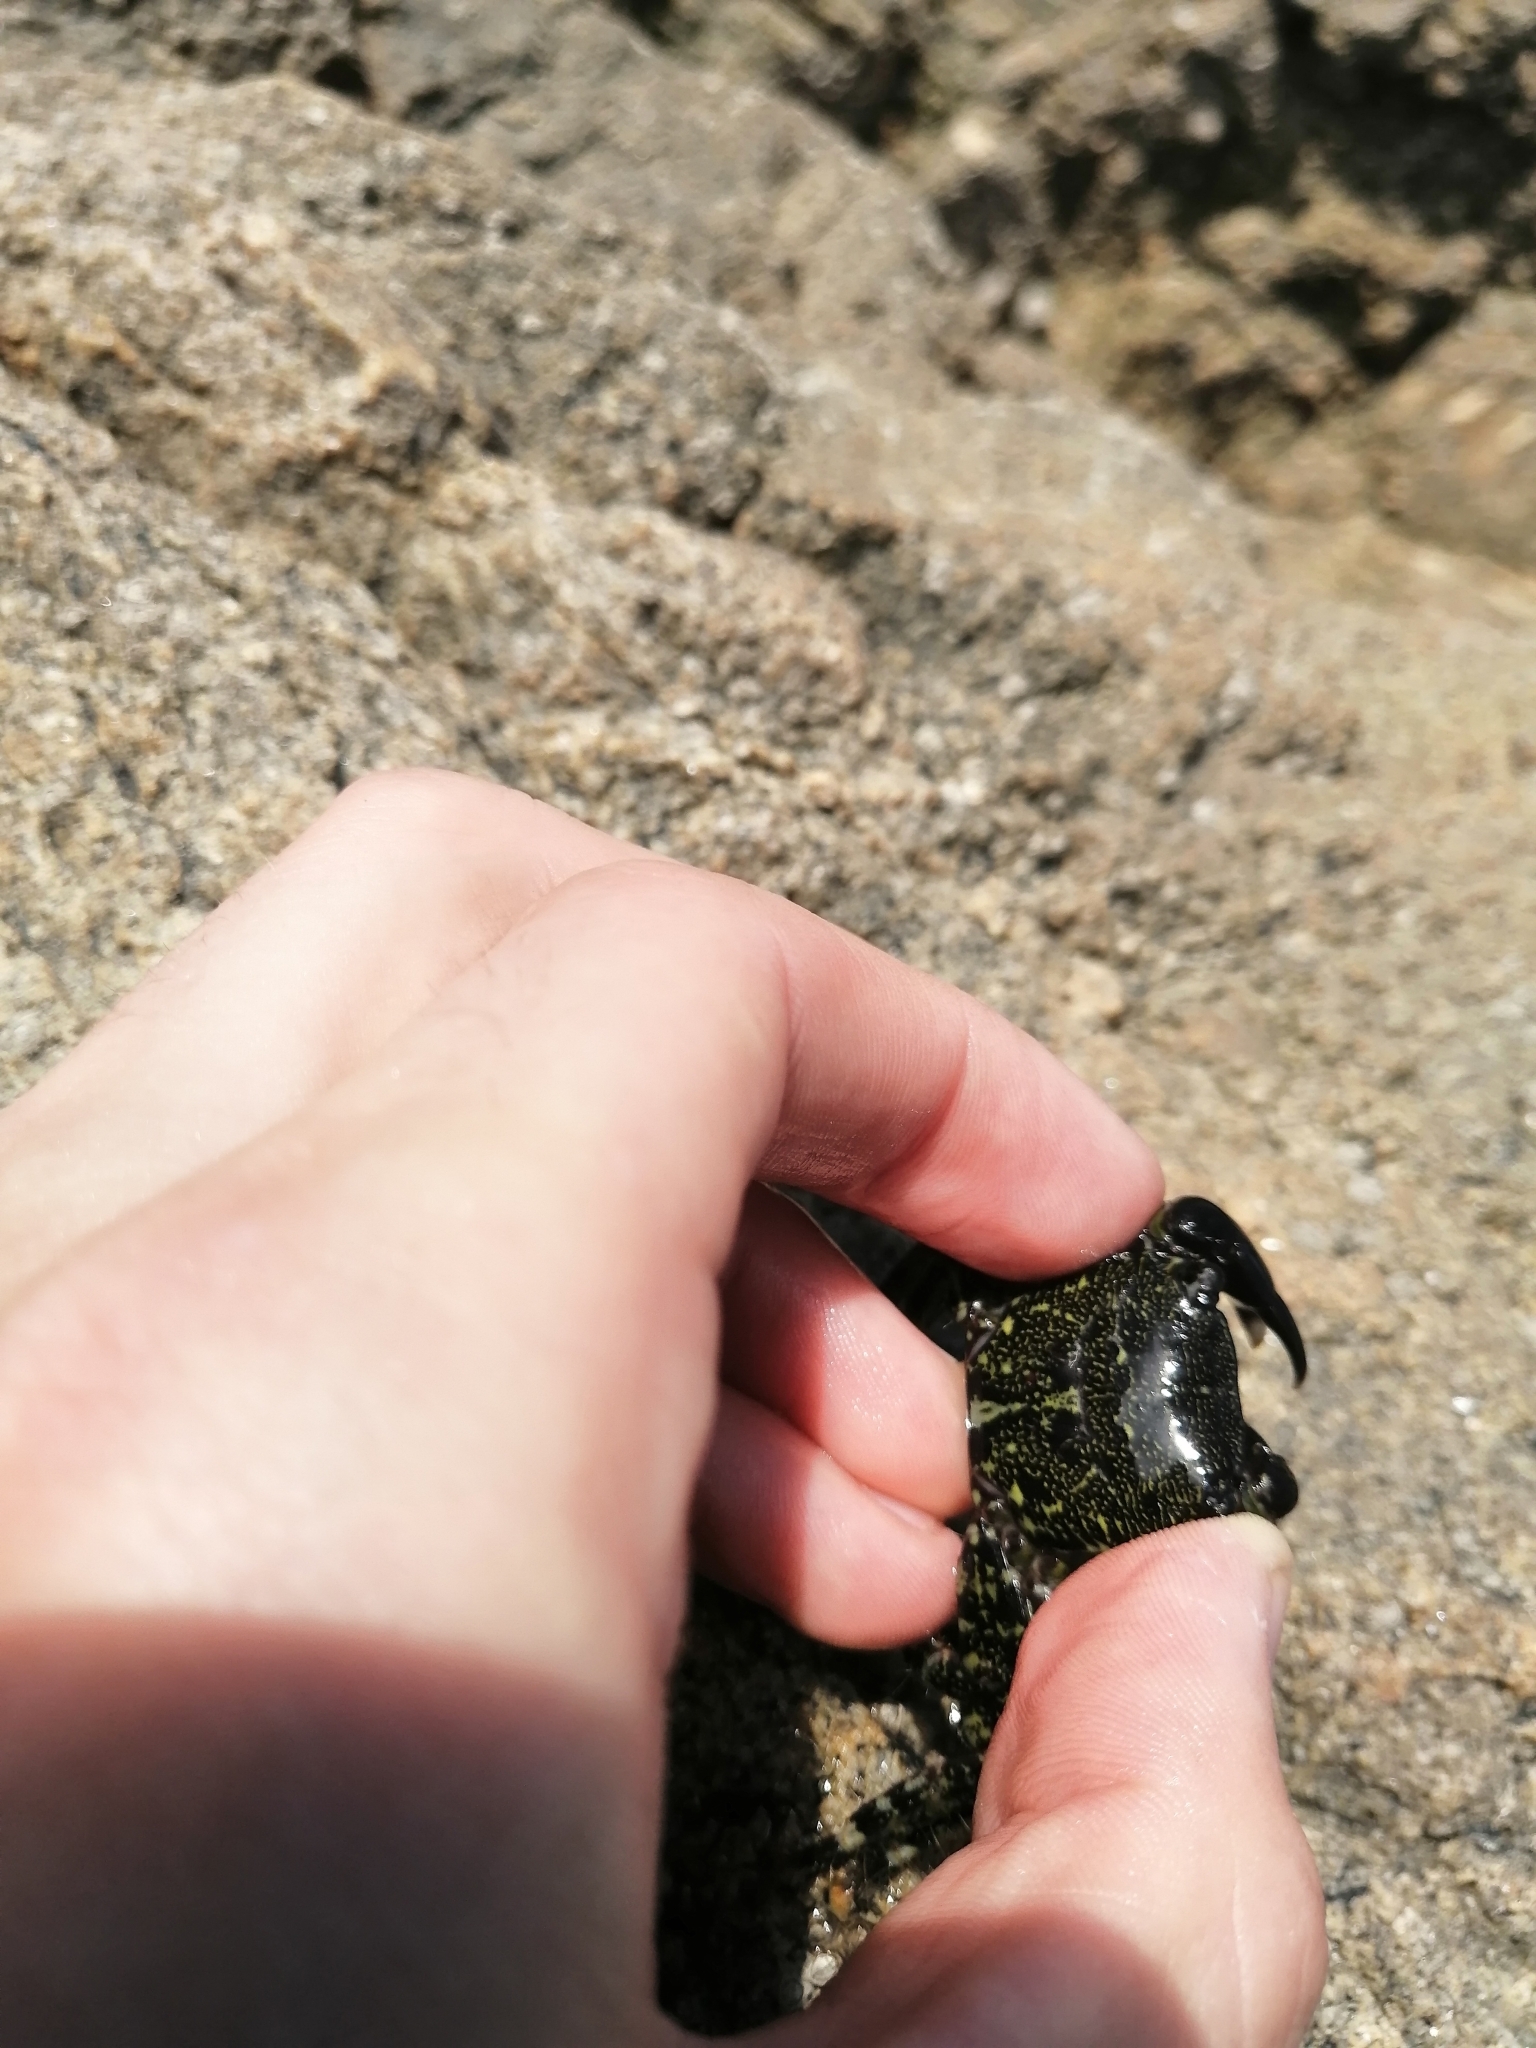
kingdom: Animalia
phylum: Arthropoda
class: Malacostraca
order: Decapoda
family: Grapsidae
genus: Pachygrapsus
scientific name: Pachygrapsus marmoratus
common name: Marbled rock crab
